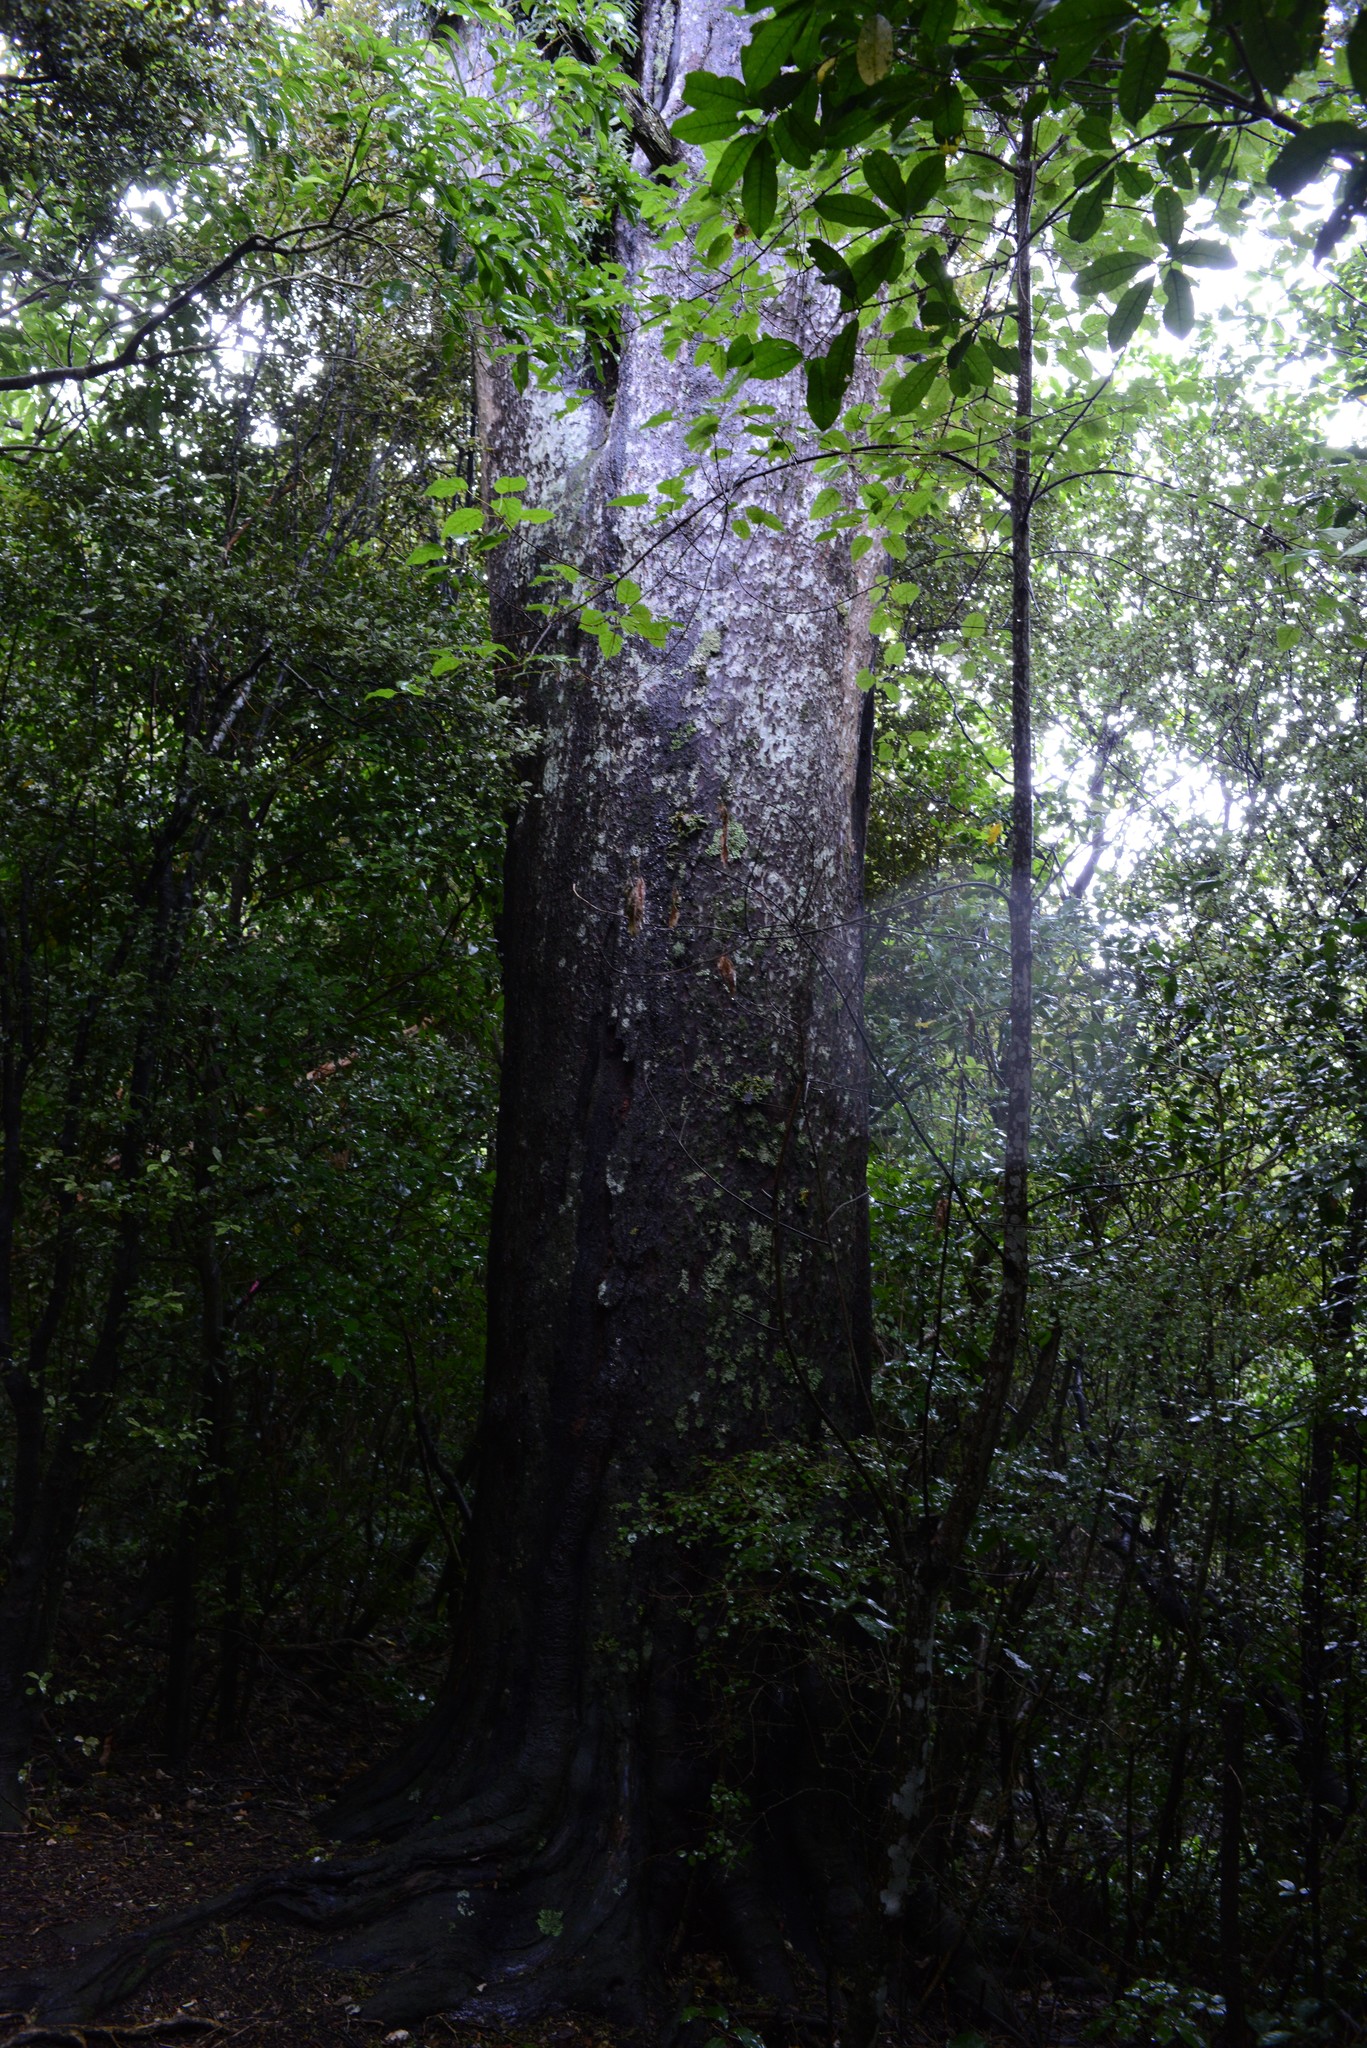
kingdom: Plantae
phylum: Tracheophyta
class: Pinopsida
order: Pinales
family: Podocarpaceae
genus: Prumnopitys
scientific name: Prumnopitys taxifolia
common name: Matai
